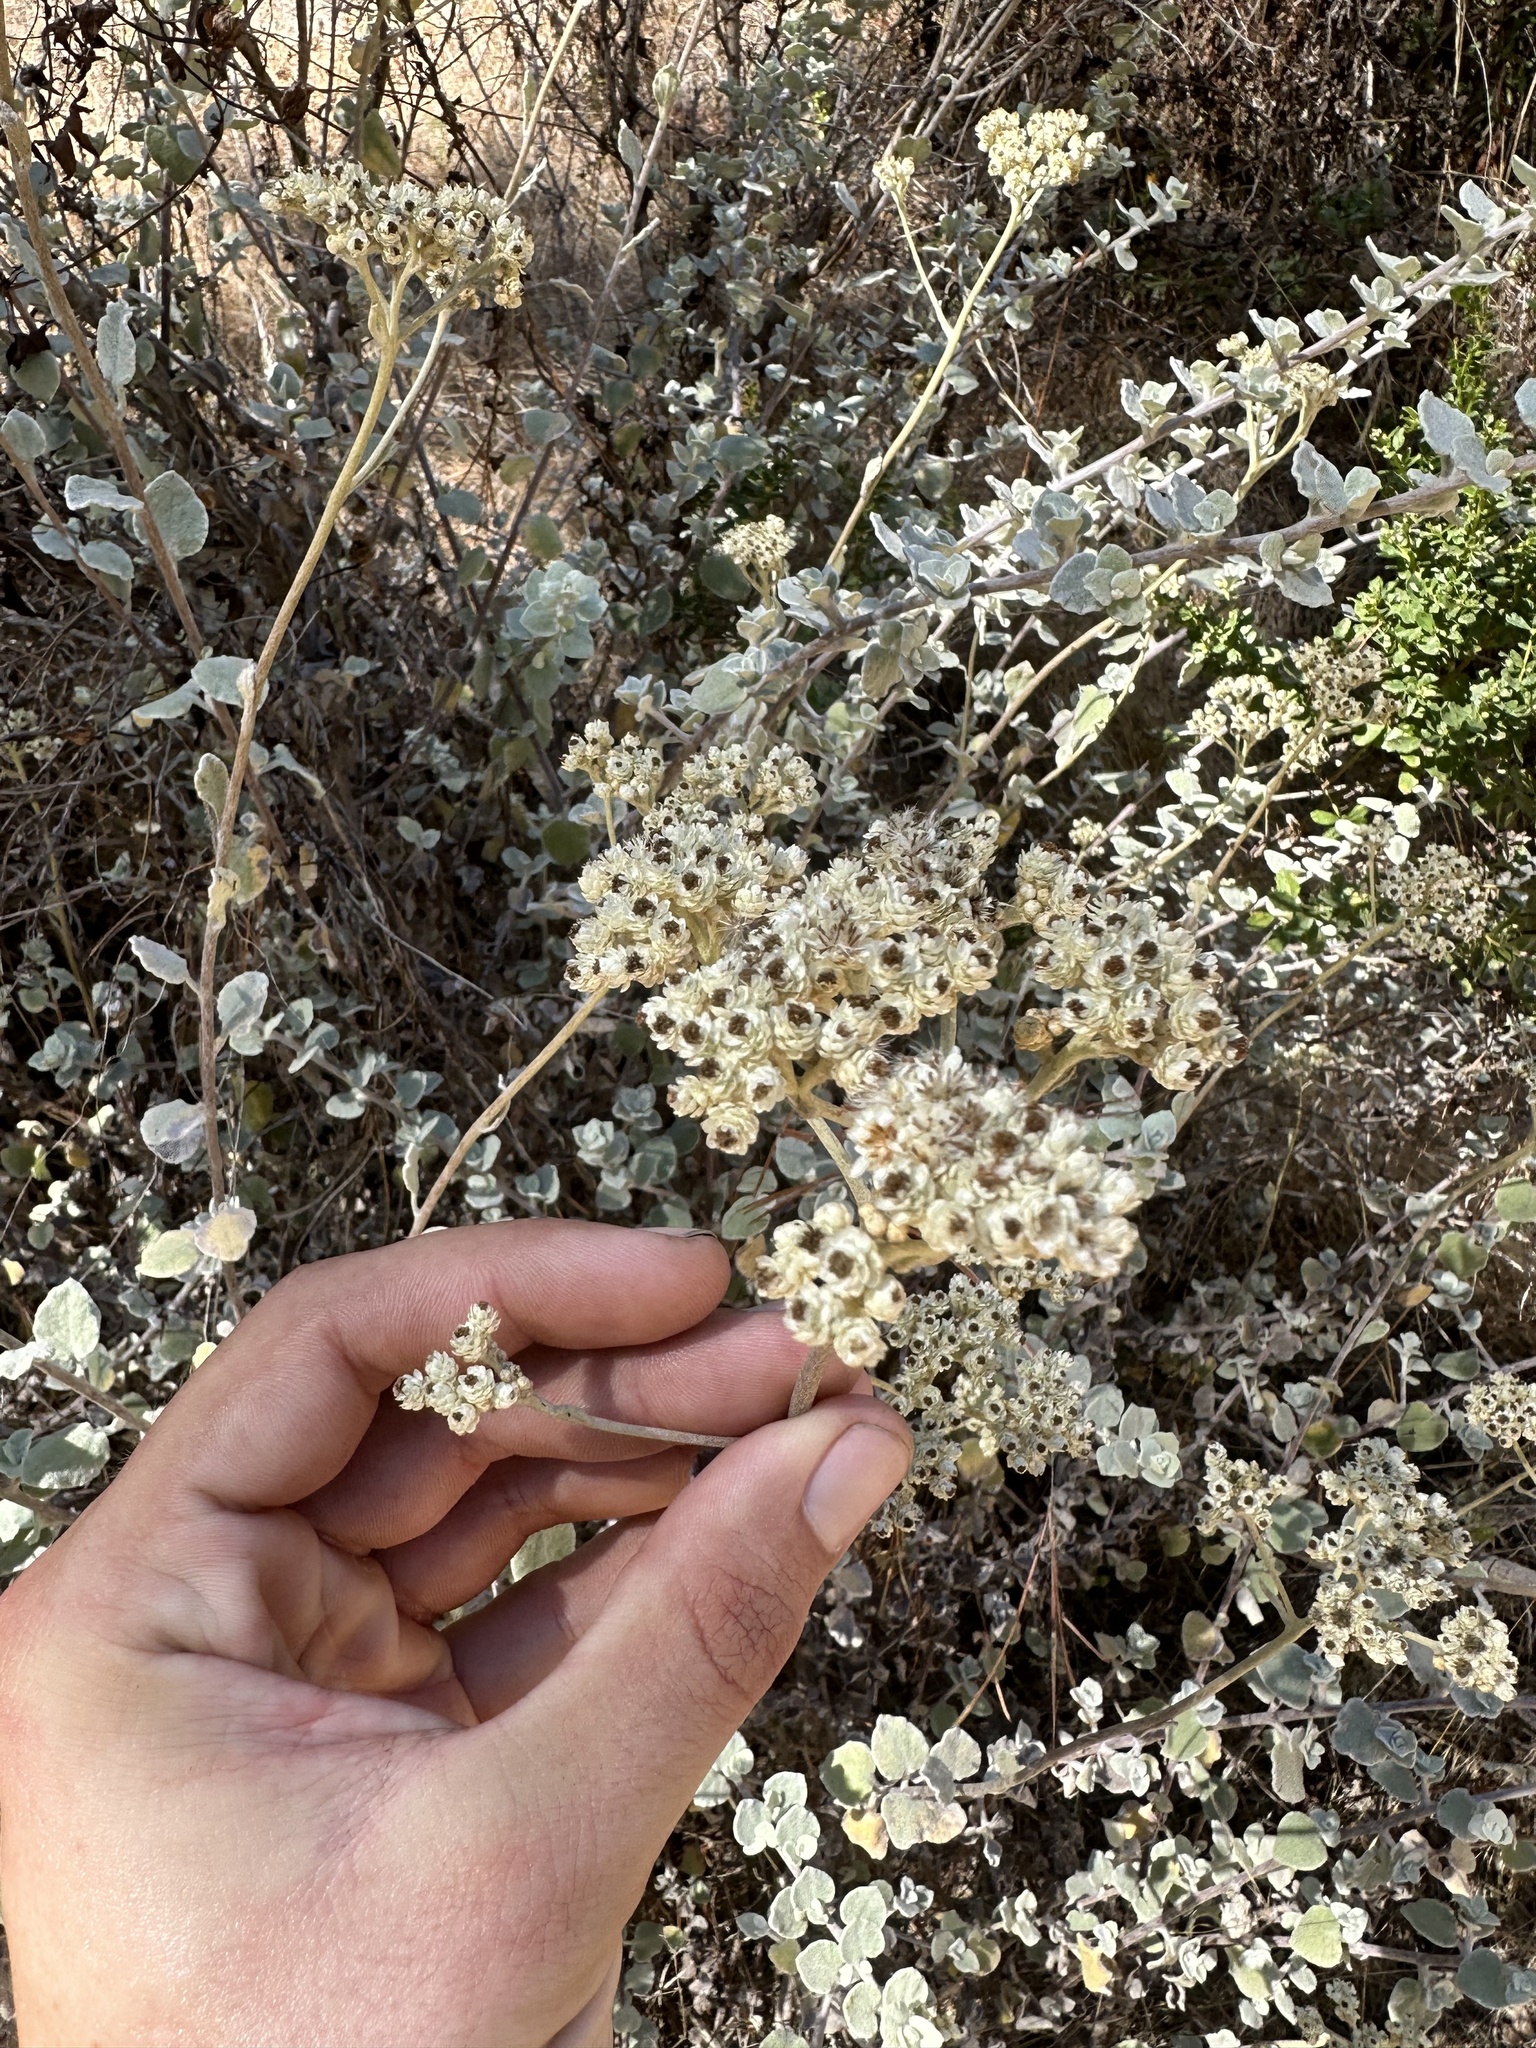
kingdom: Plantae
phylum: Tracheophyta
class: Magnoliopsida
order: Asterales
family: Asteraceae
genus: Helichrysum
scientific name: Helichrysum petiolare
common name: Licorice-plant
